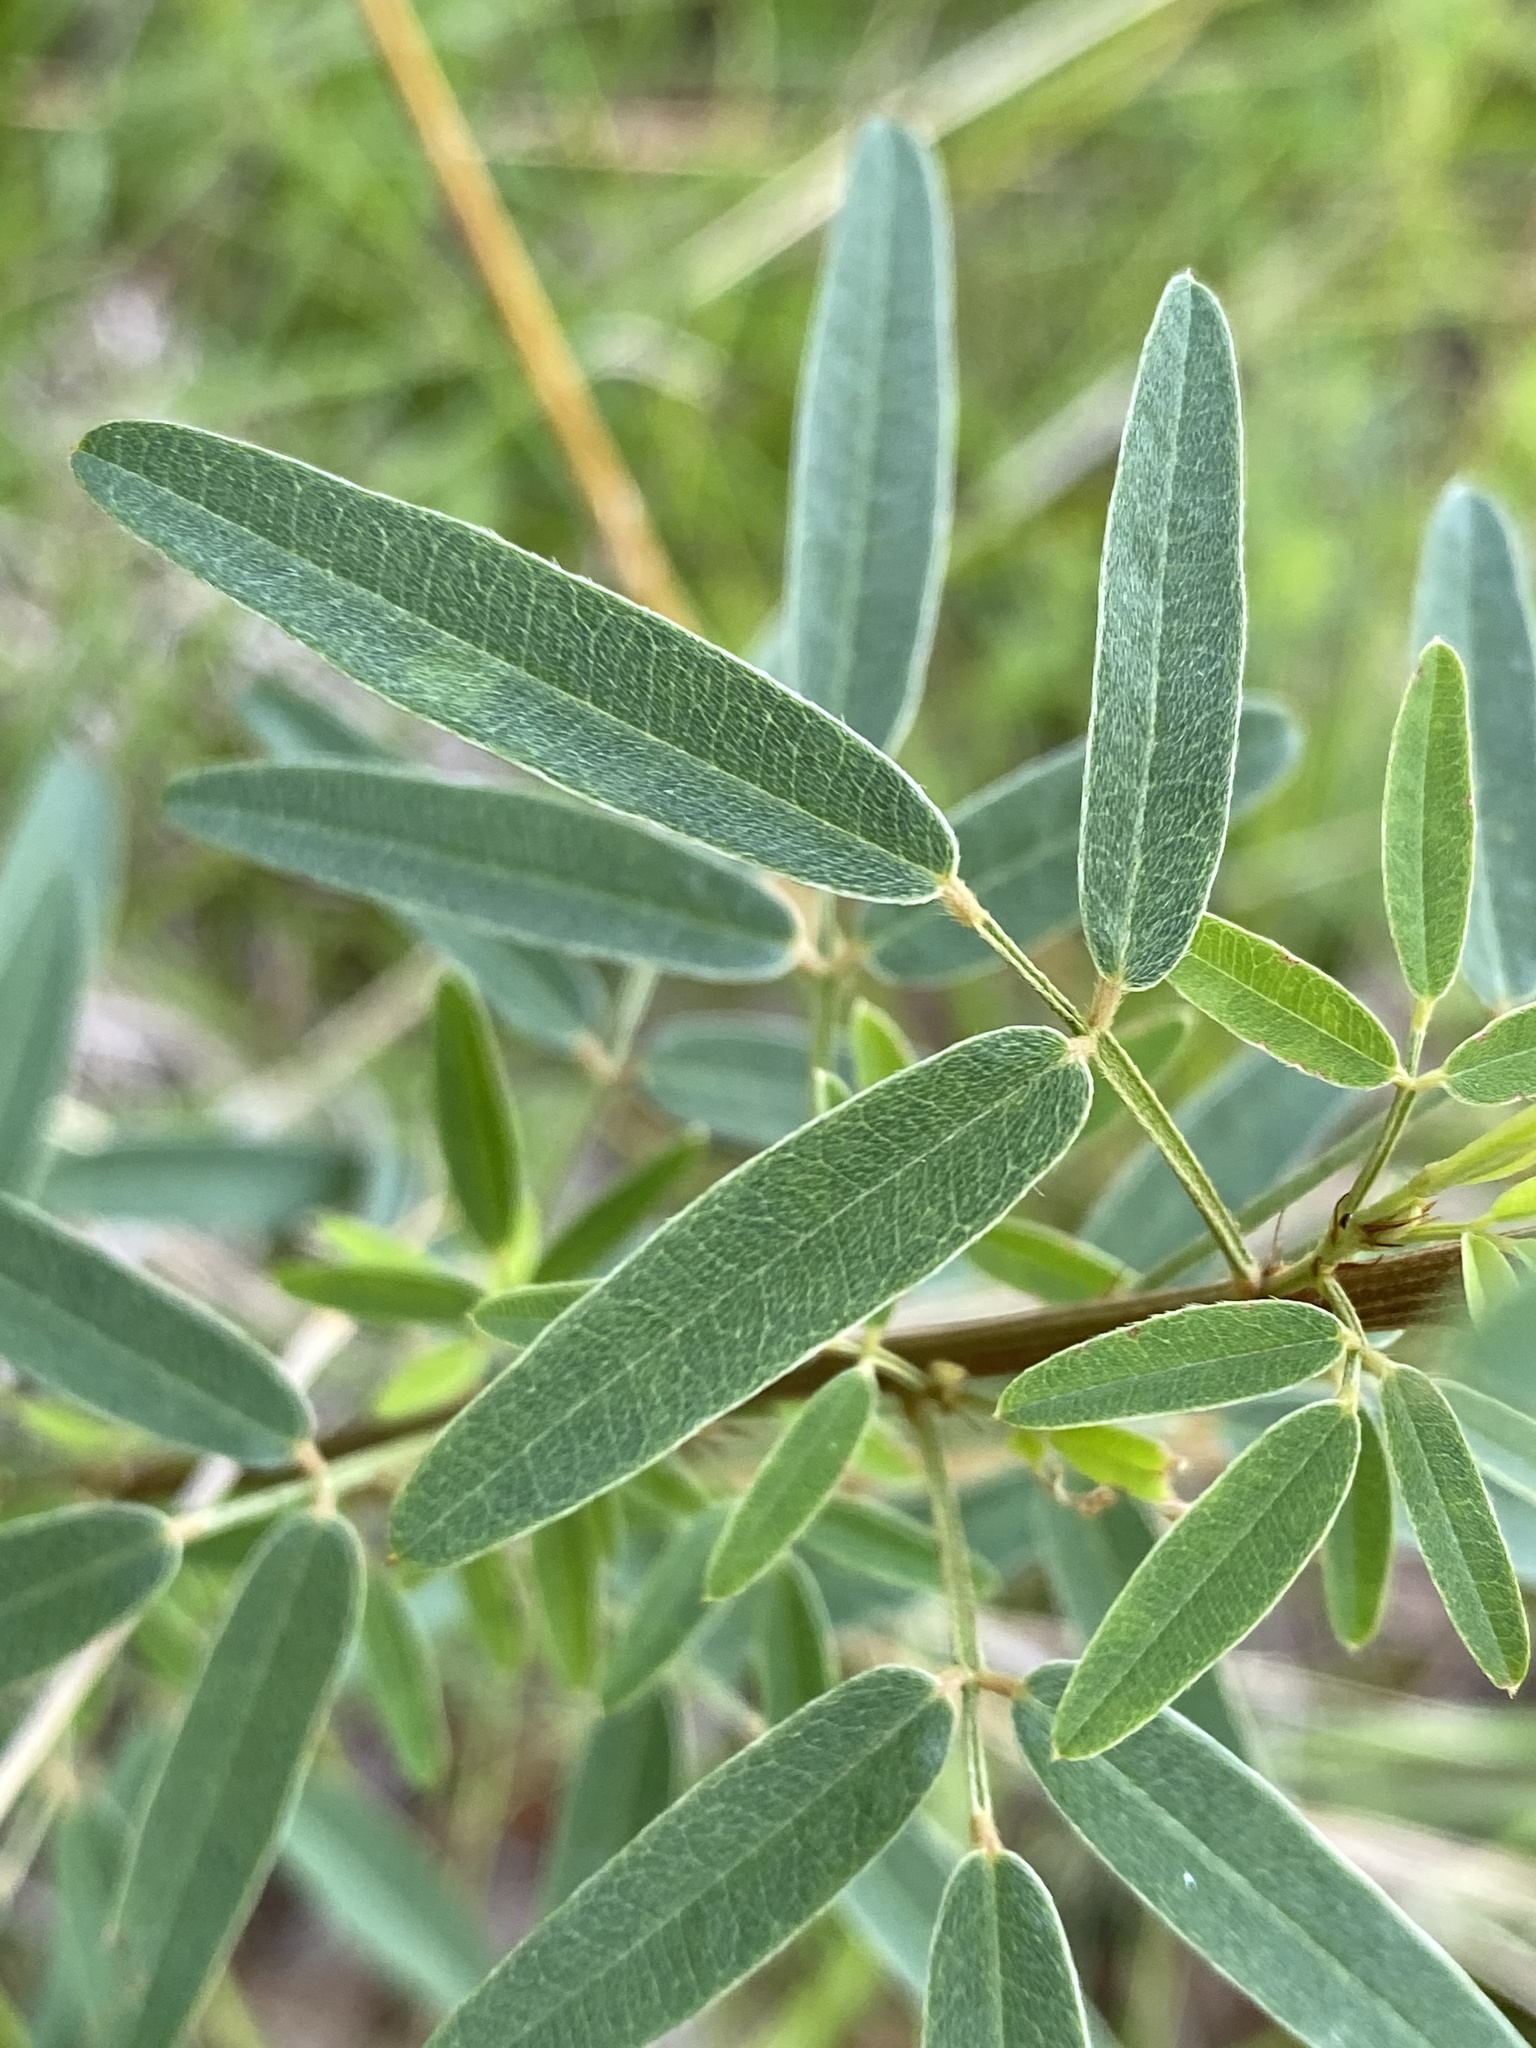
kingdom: Plantae
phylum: Tracheophyta
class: Magnoliopsida
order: Fabales
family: Fabaceae
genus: Lespedeza
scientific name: Lespedeza virginica
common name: Slender bush-clover
